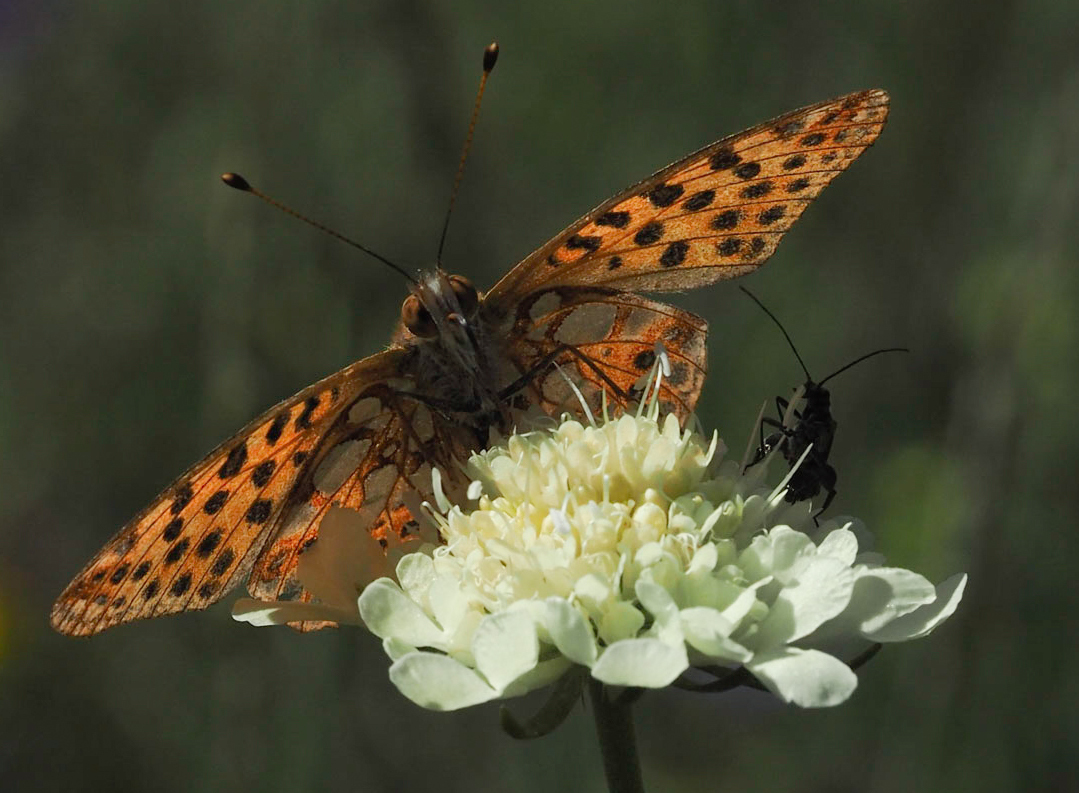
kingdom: Animalia
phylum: Arthropoda
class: Insecta
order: Lepidoptera
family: Nymphalidae
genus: Issoria
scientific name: Issoria lathonia
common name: Queen of spain fritillary
